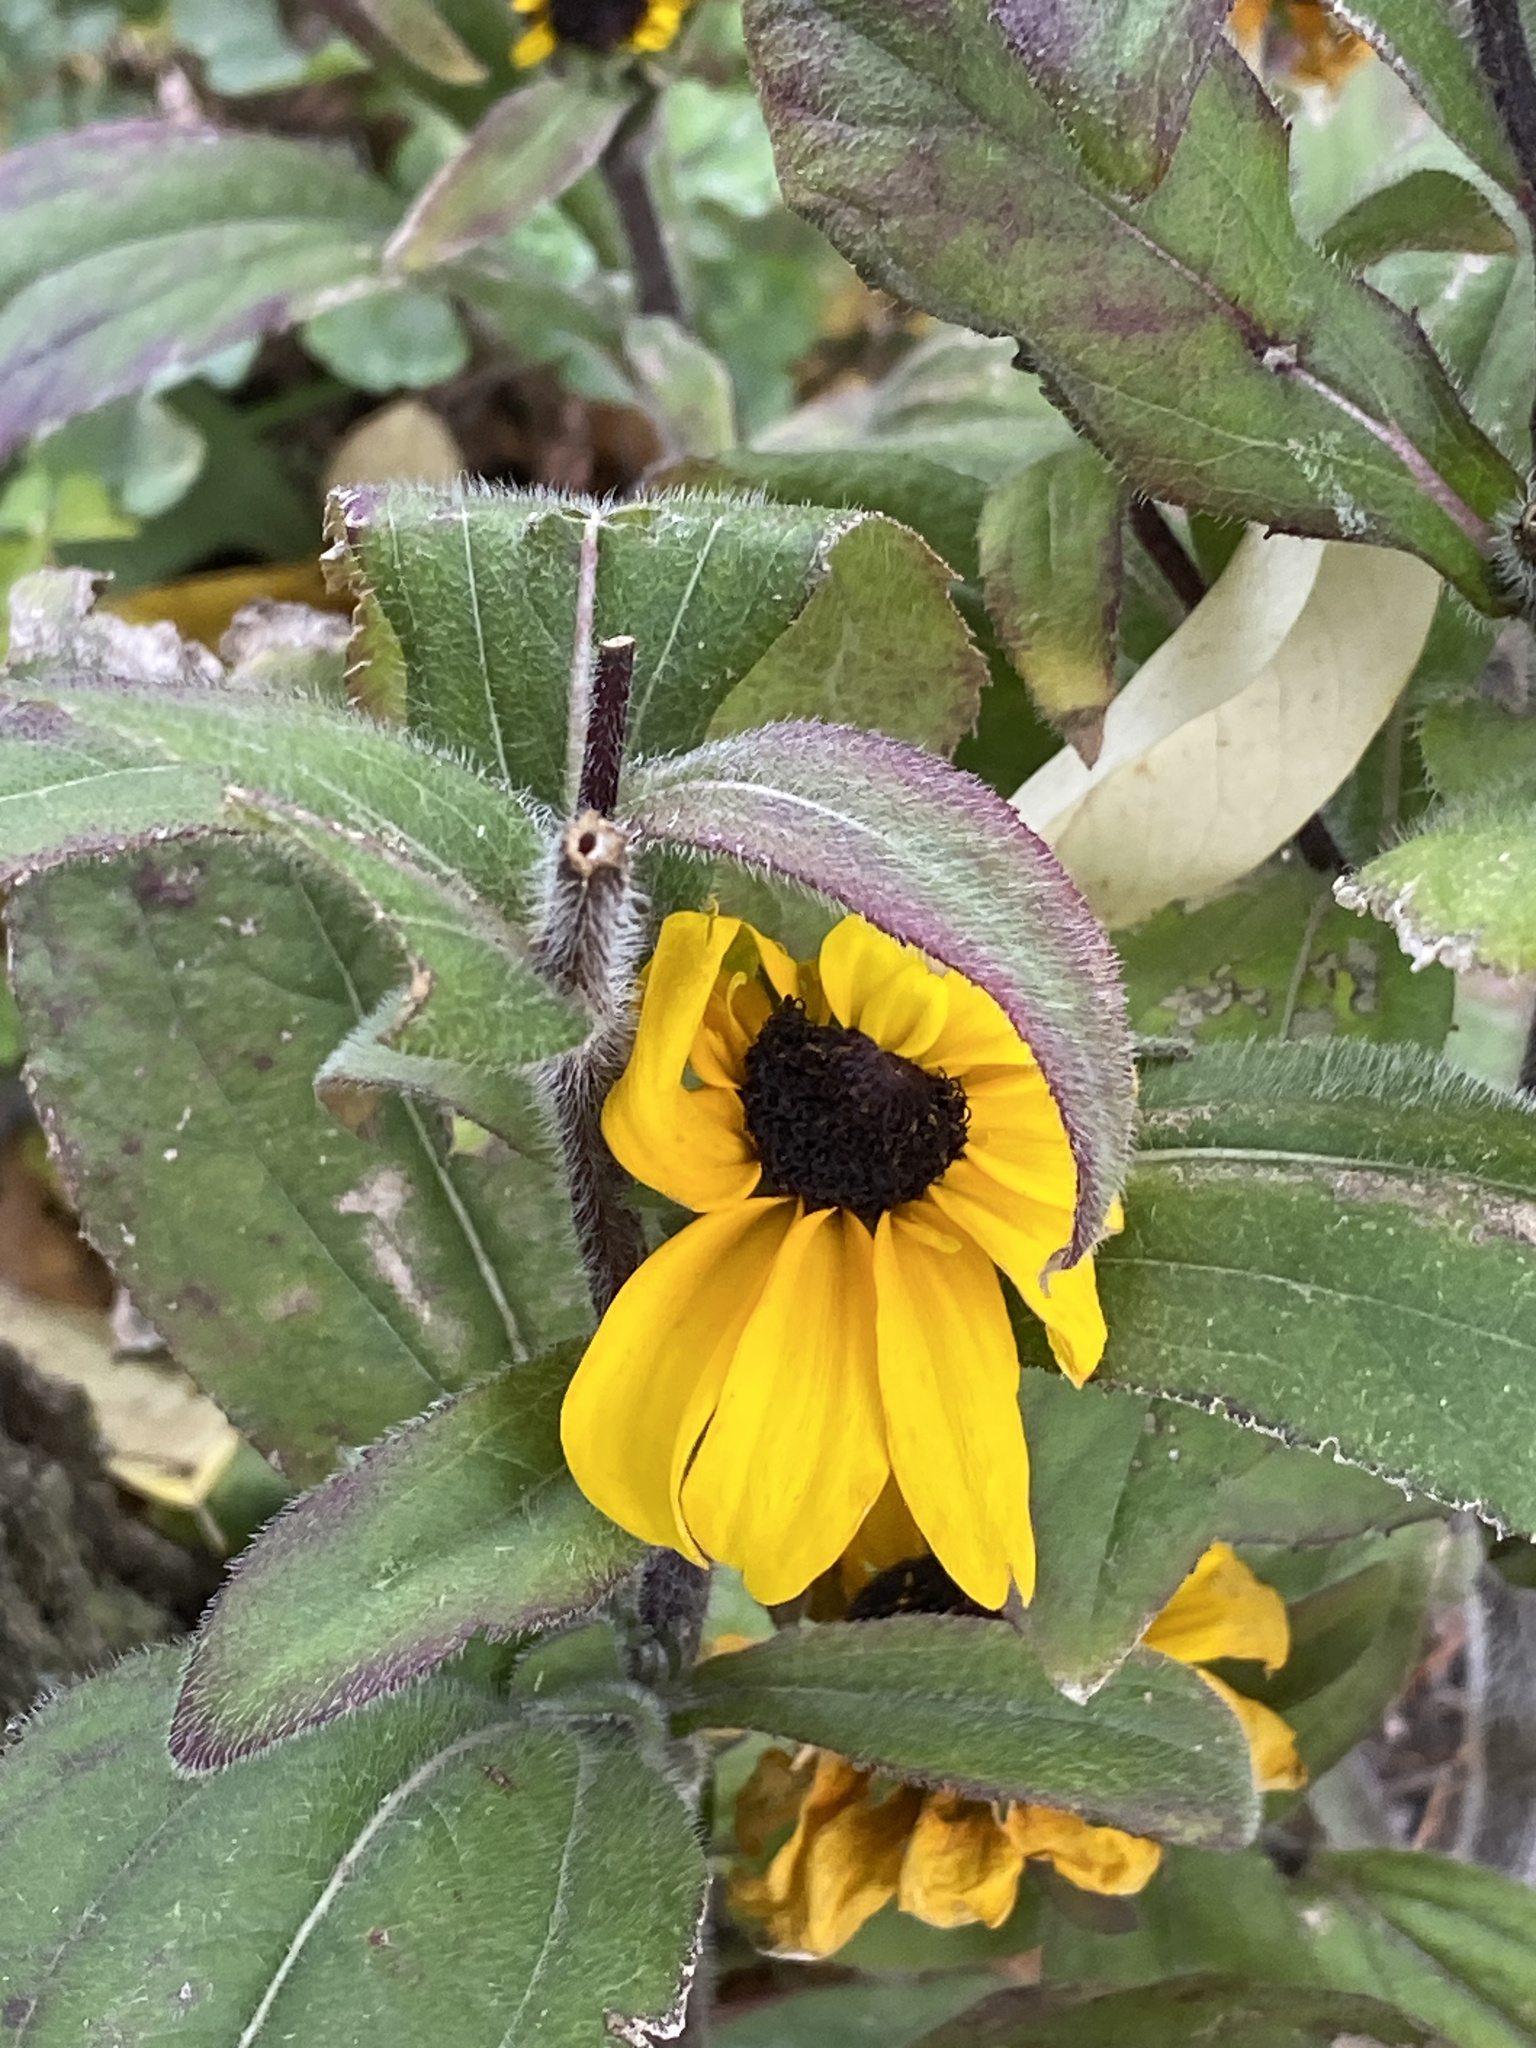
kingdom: Plantae
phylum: Tracheophyta
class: Magnoliopsida
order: Asterales
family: Asteraceae
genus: Rudbeckia
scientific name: Rudbeckia hirta
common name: Black-eyed-susan
